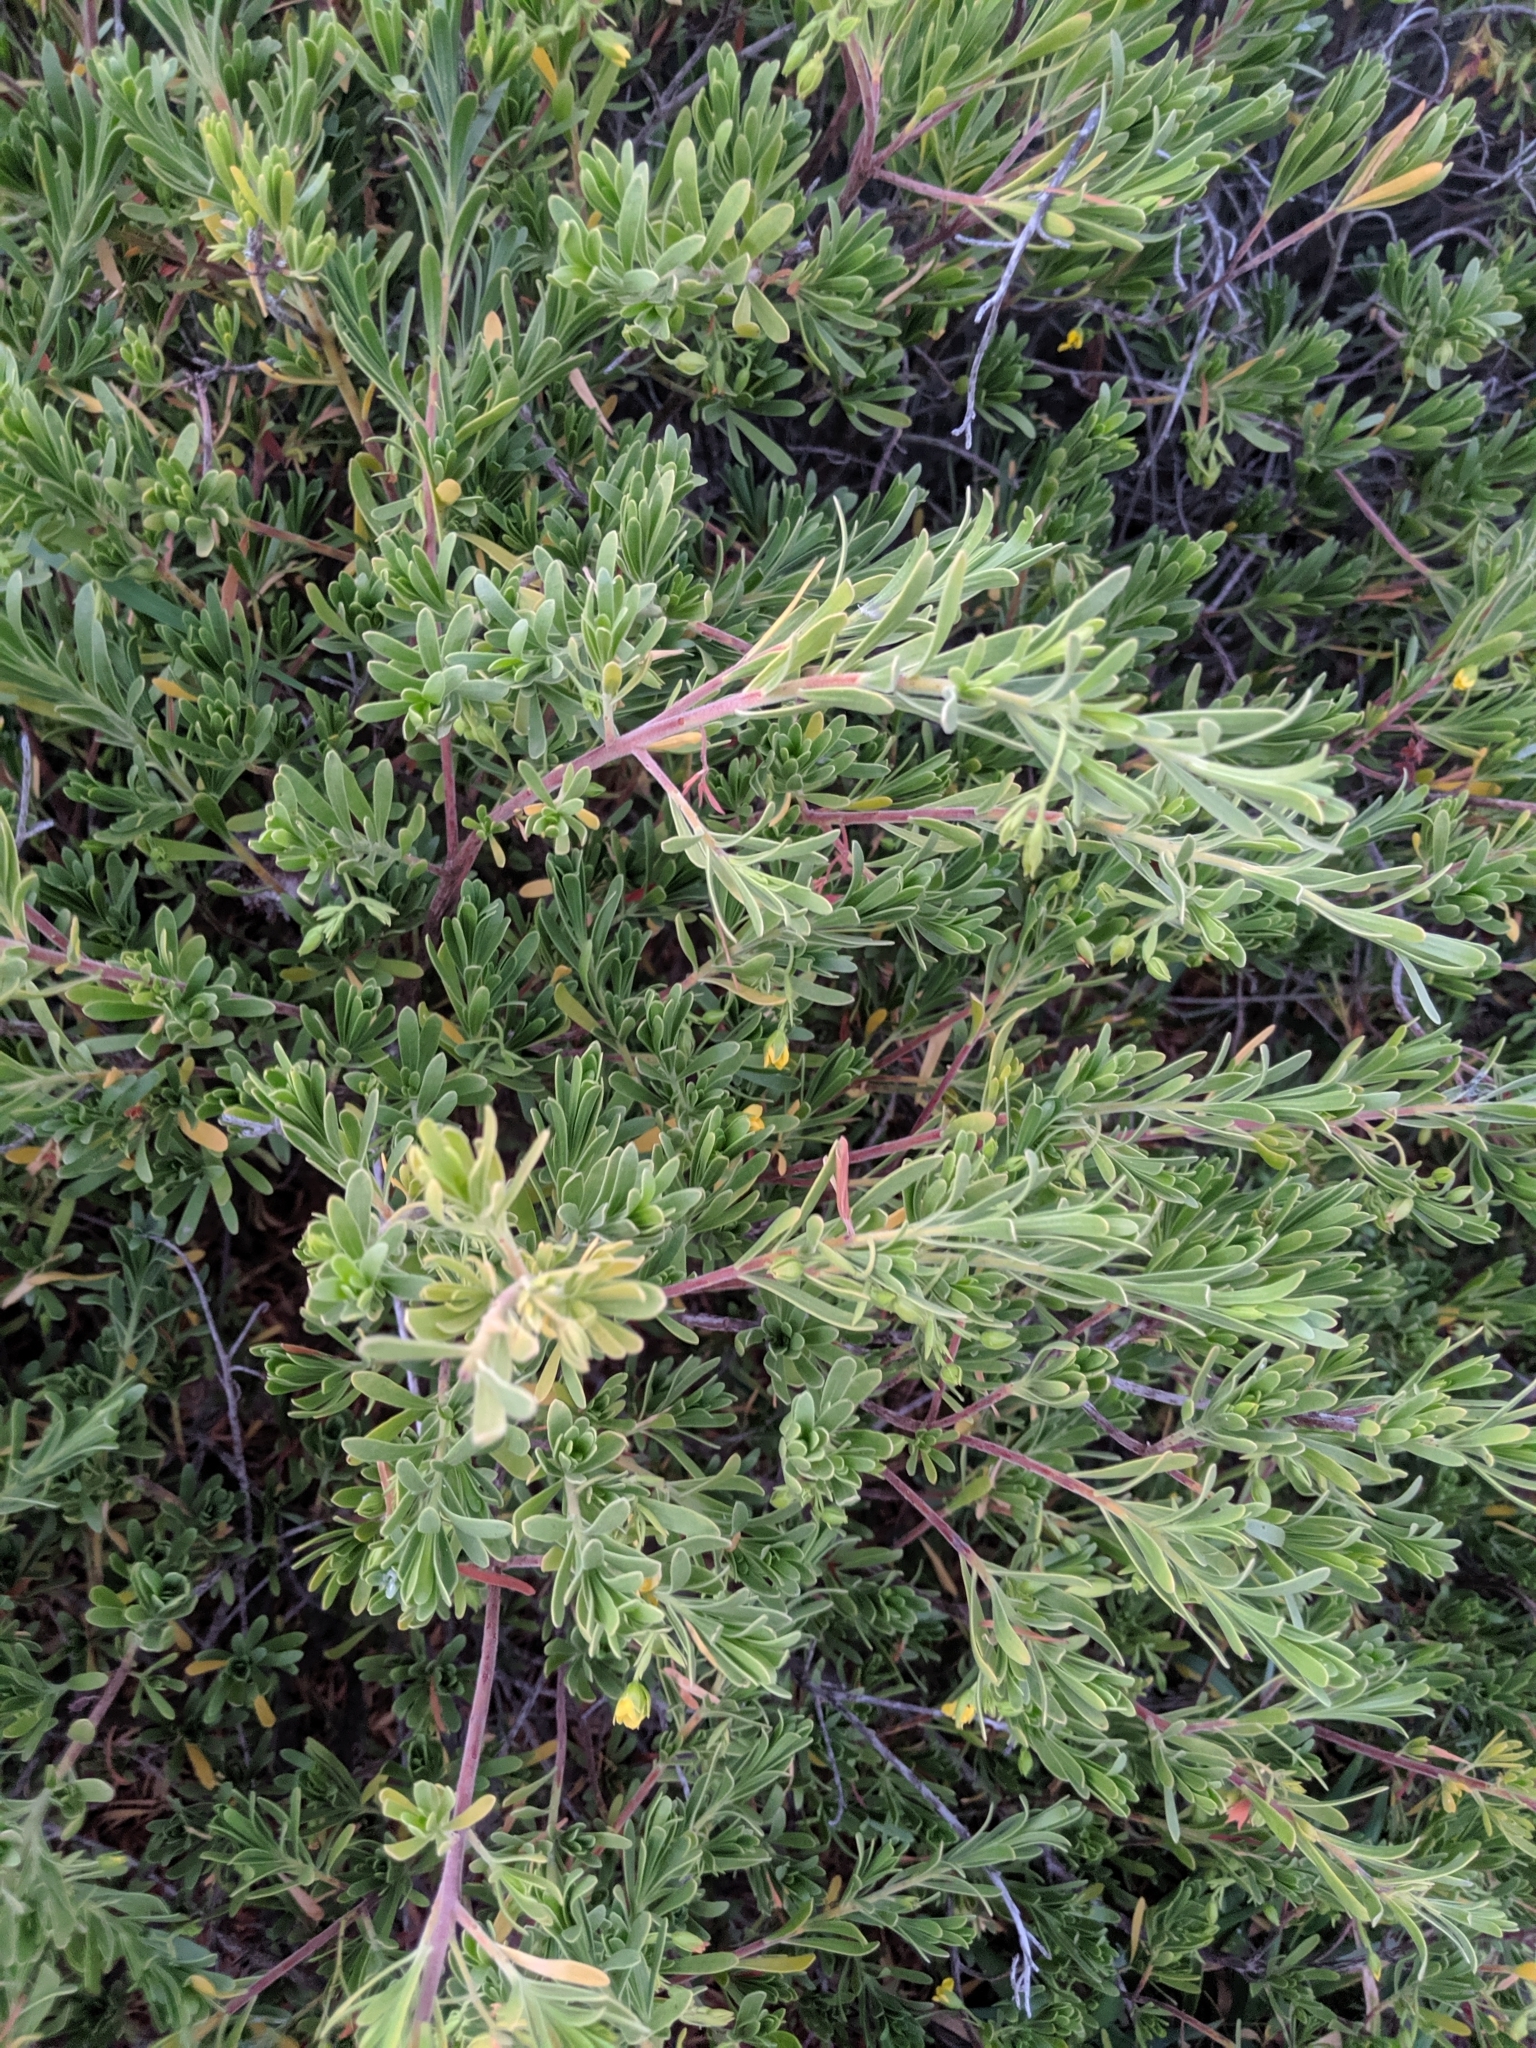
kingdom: Plantae
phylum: Tracheophyta
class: Magnoliopsida
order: Fabales
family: Surianaceae
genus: Suriana
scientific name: Suriana maritima
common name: Bay-cedar
